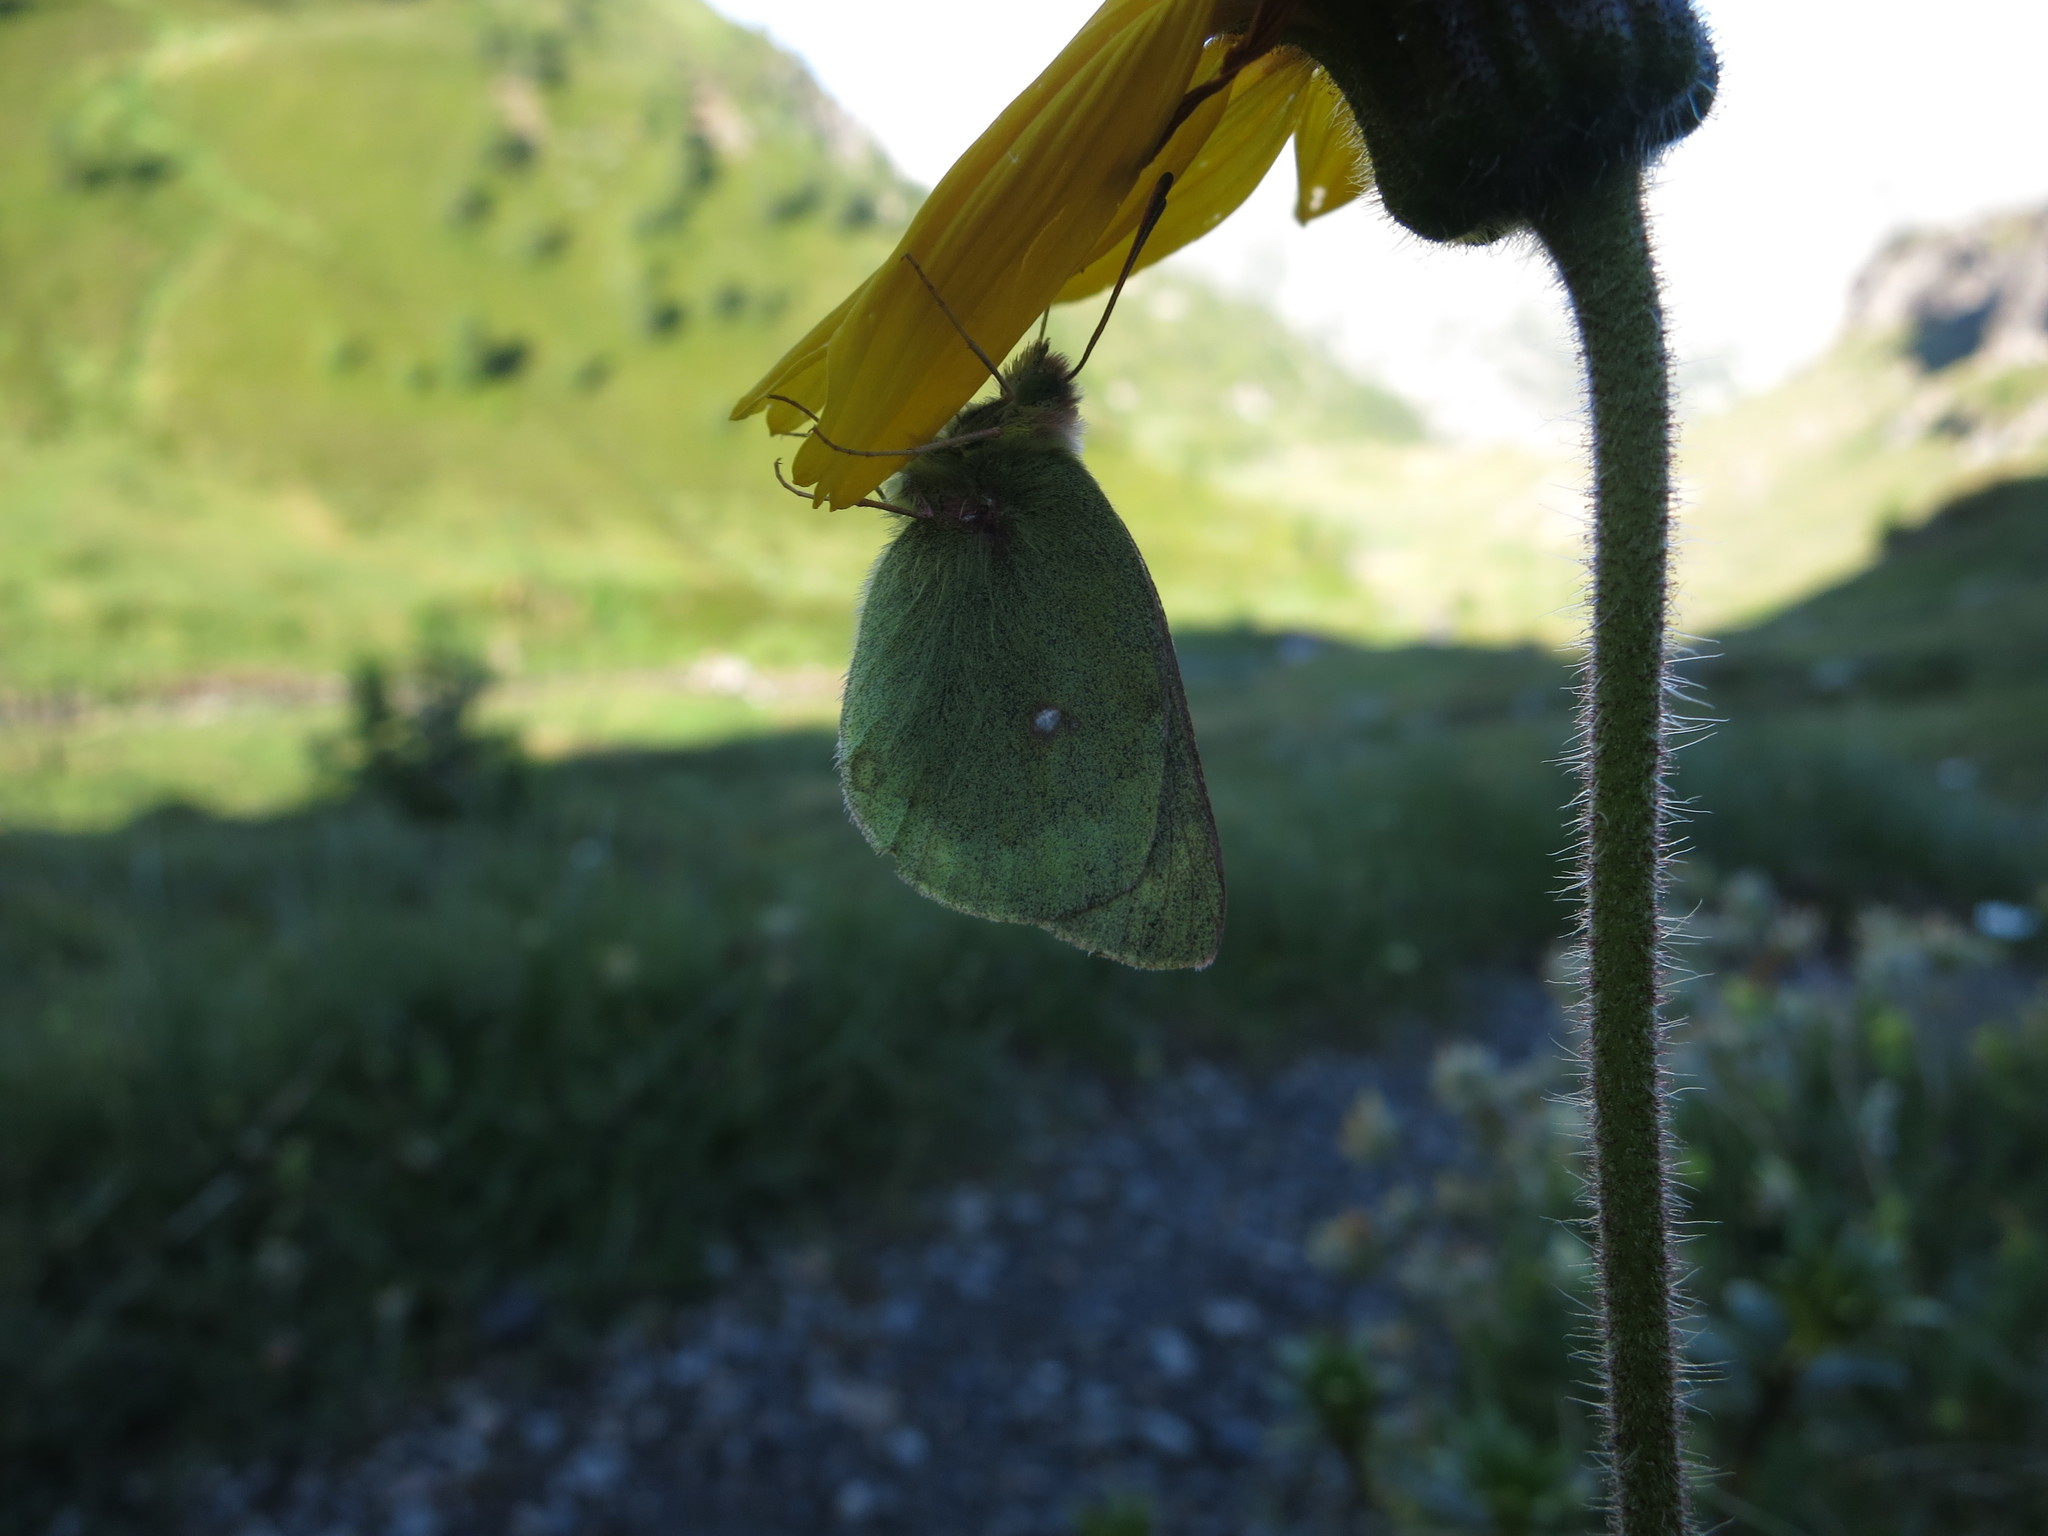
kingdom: Animalia
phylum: Arthropoda
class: Insecta
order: Lepidoptera
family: Pieridae
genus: Colias
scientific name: Colias phicomone
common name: Mountain clouded yellow
